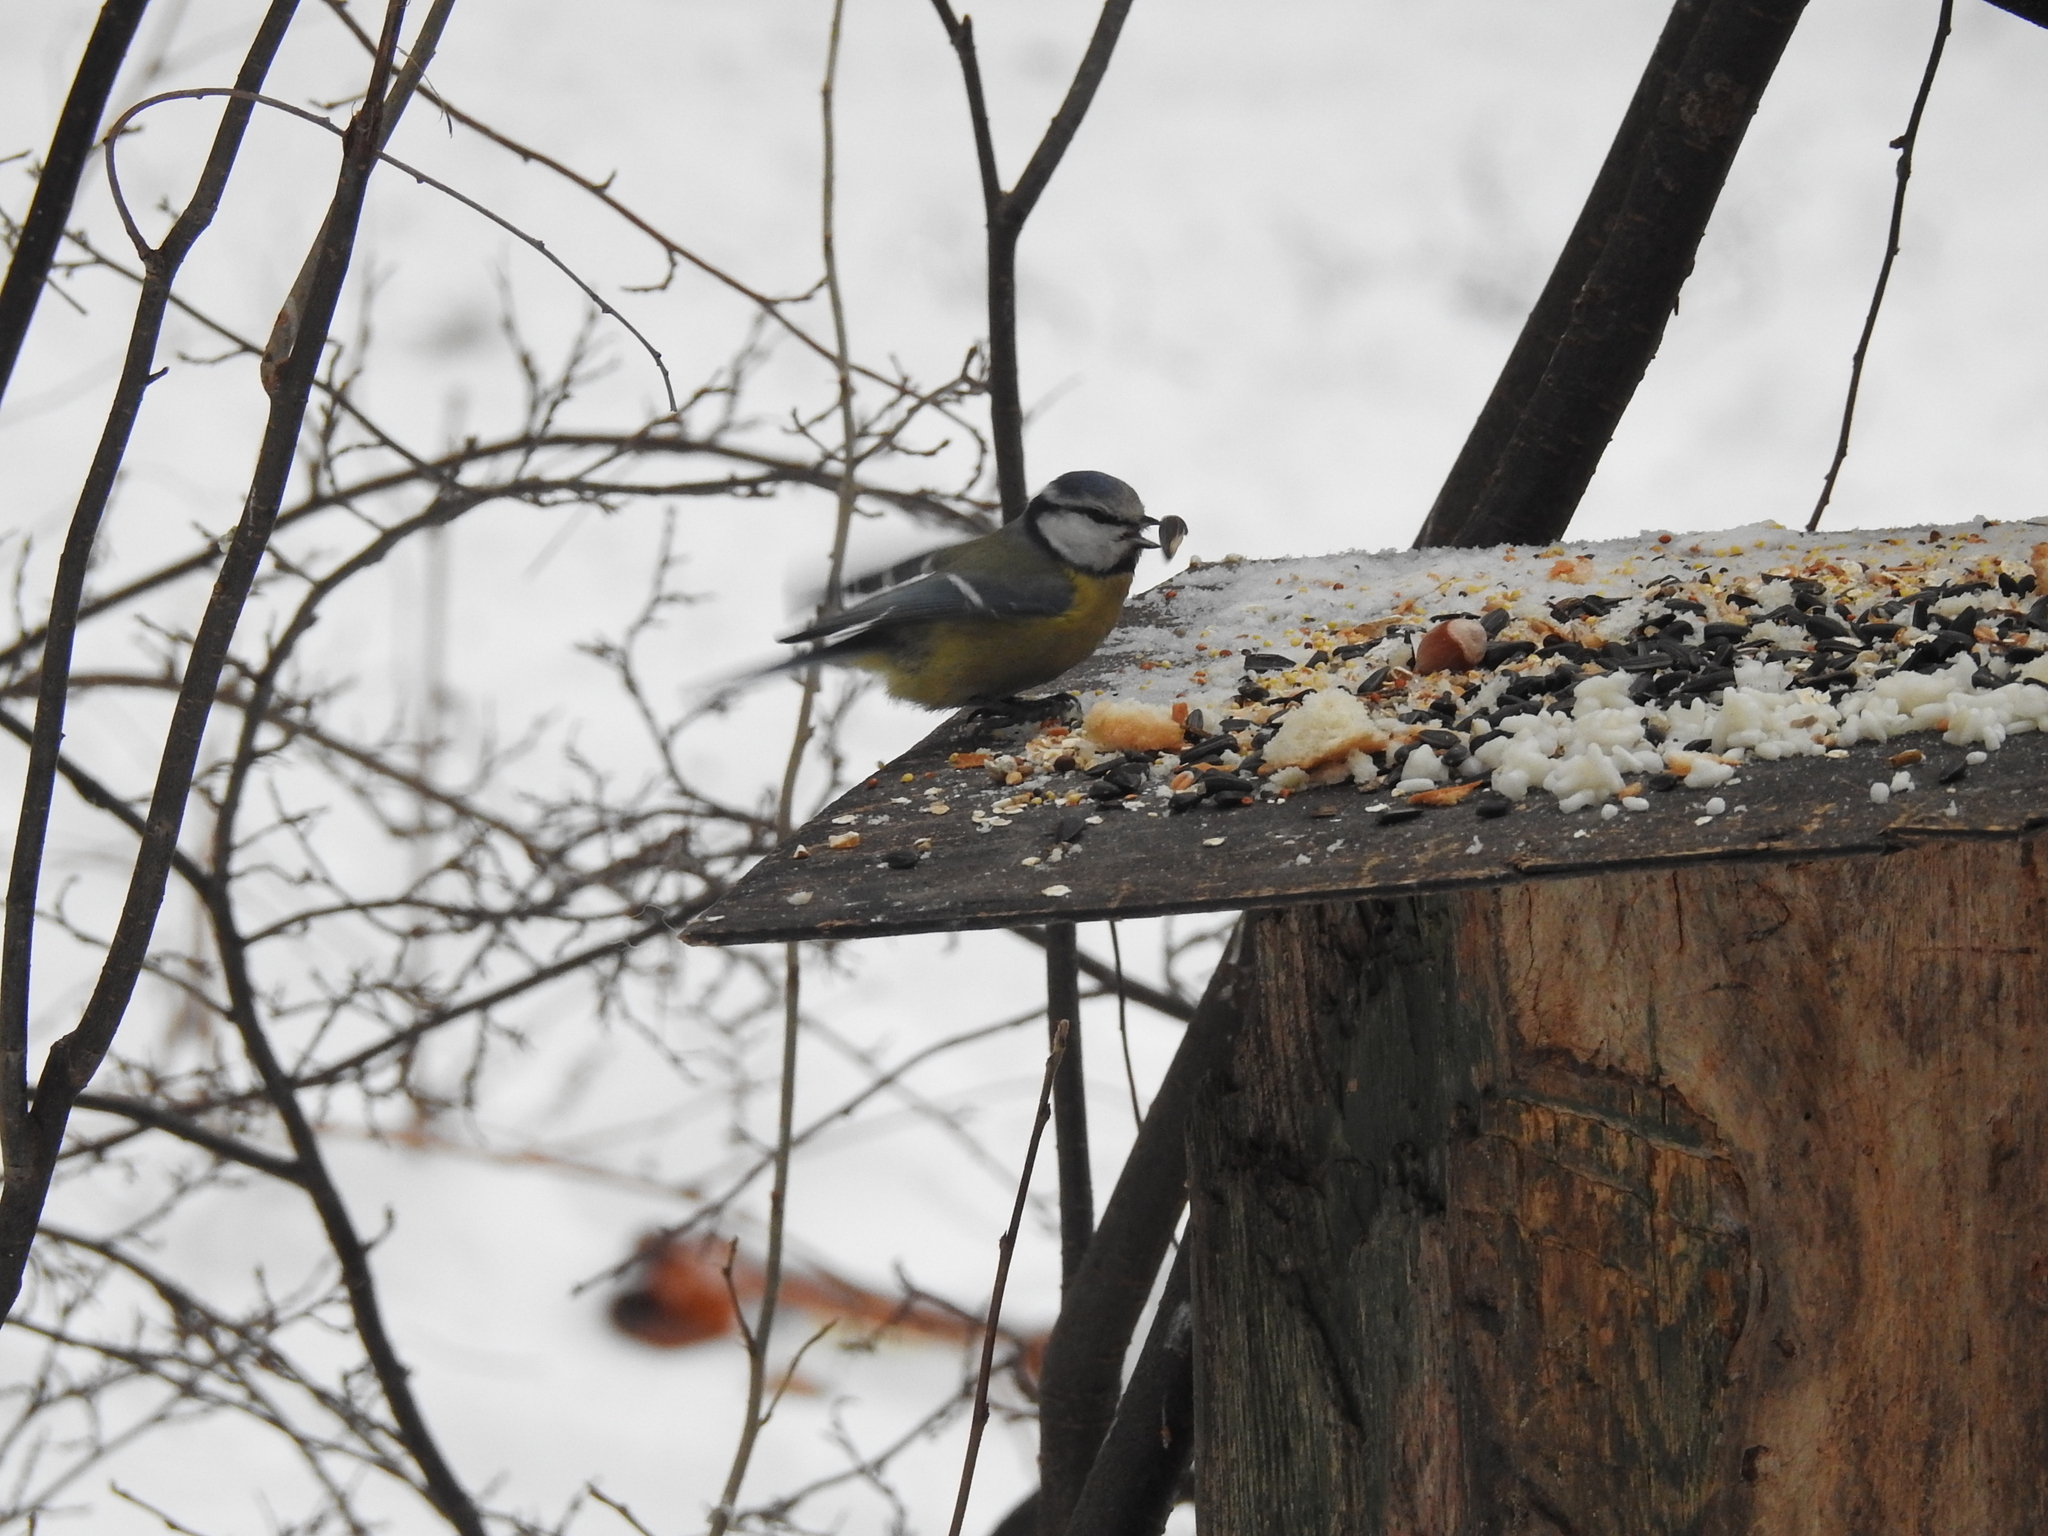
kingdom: Animalia
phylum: Chordata
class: Aves
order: Passeriformes
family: Paridae
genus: Cyanistes
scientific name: Cyanistes caeruleus
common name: Eurasian blue tit
